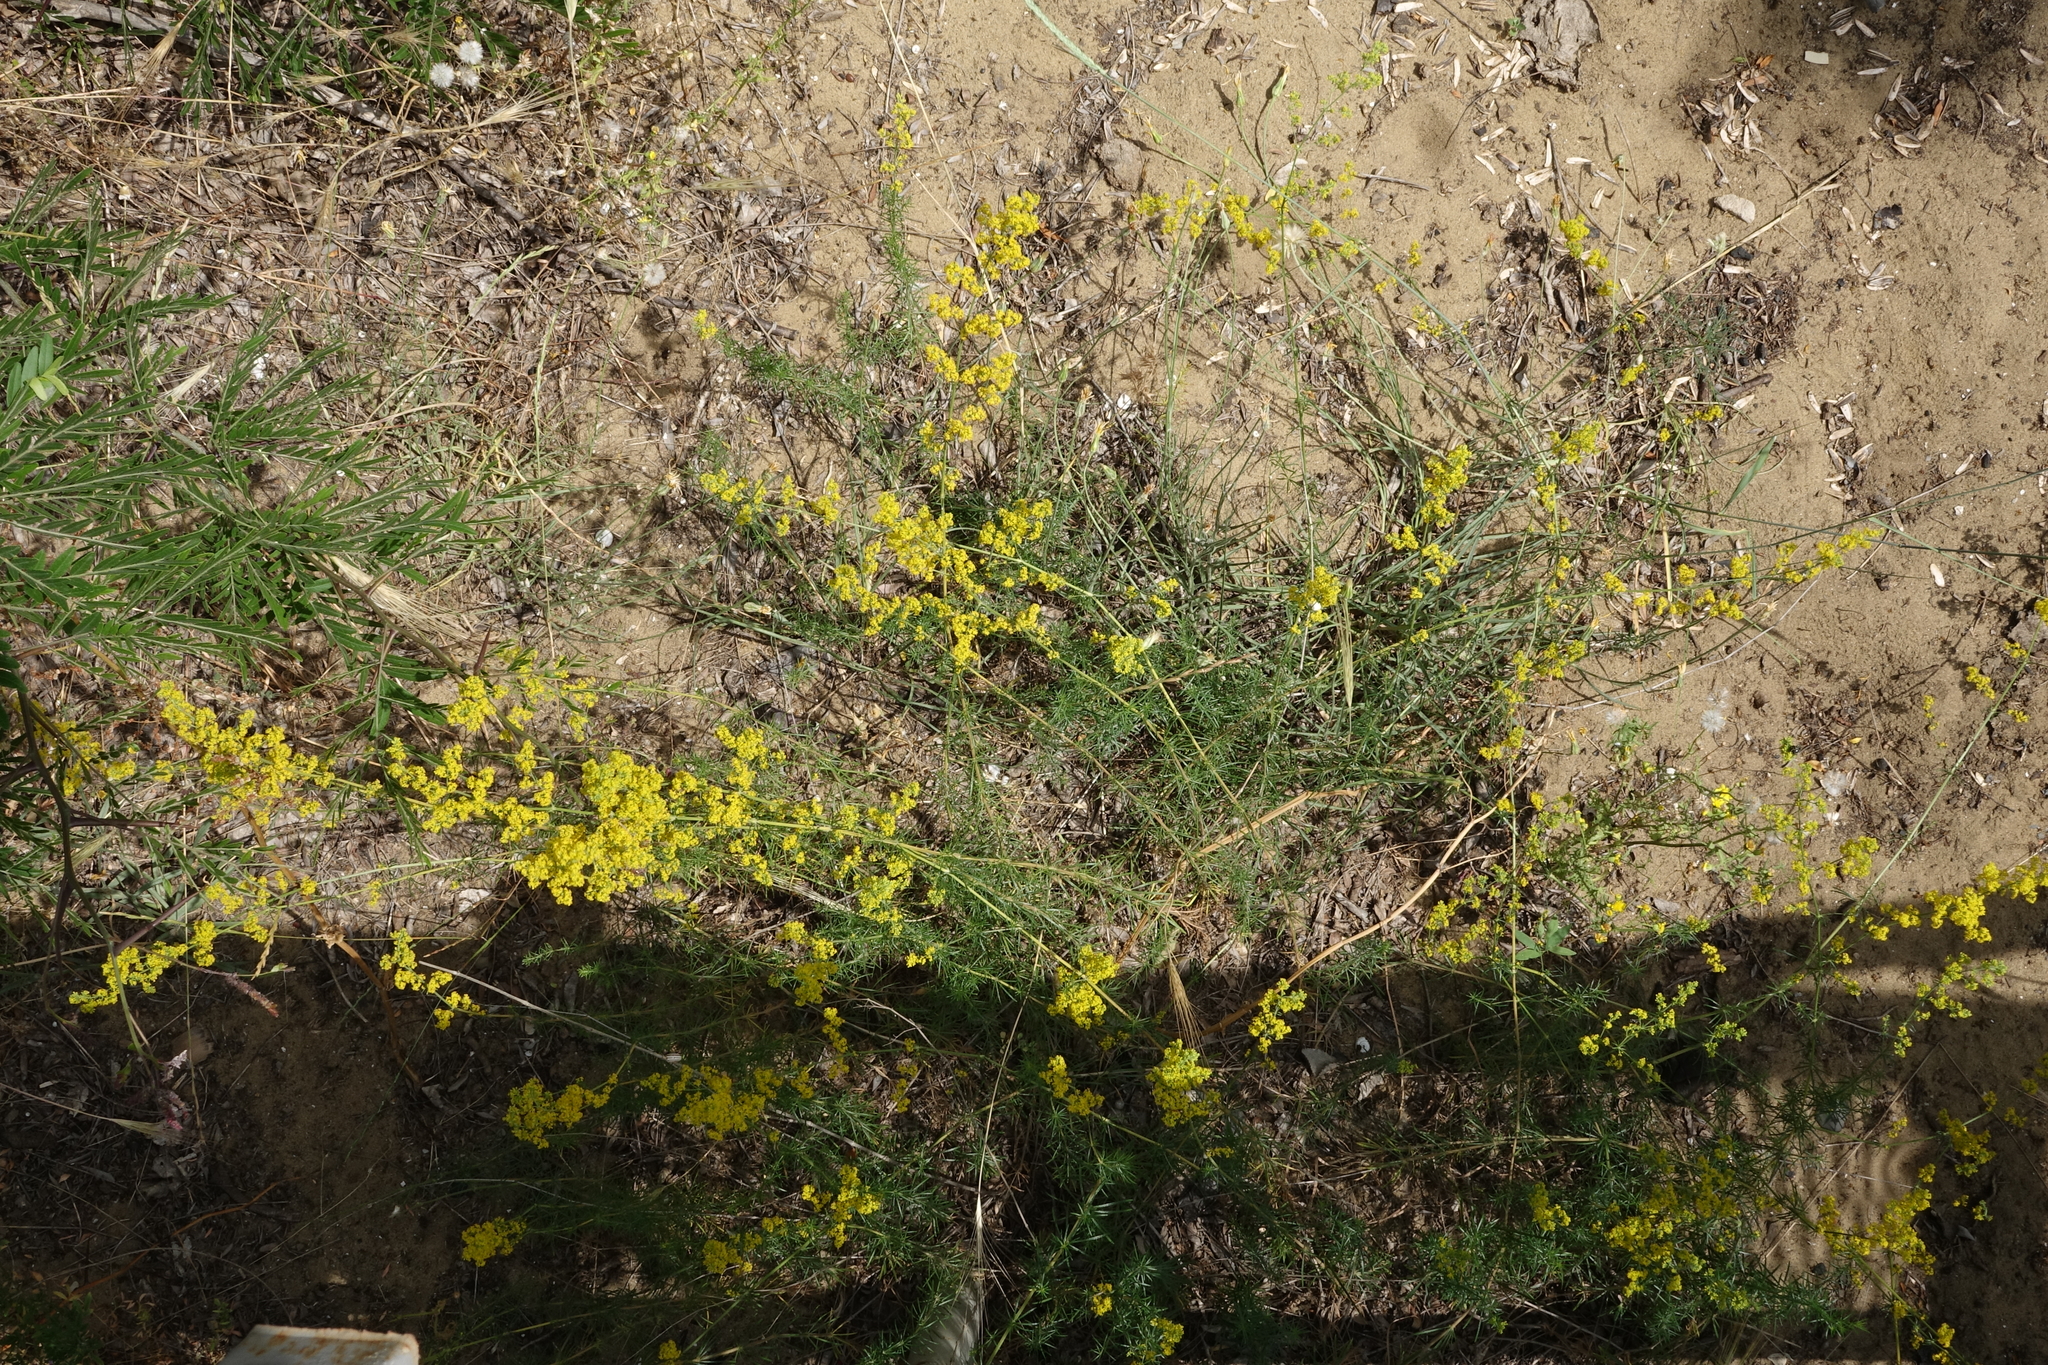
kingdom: Plantae
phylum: Tracheophyta
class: Magnoliopsida
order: Gentianales
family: Rubiaceae
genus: Galium
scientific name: Galium verum
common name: Lady's bedstraw
